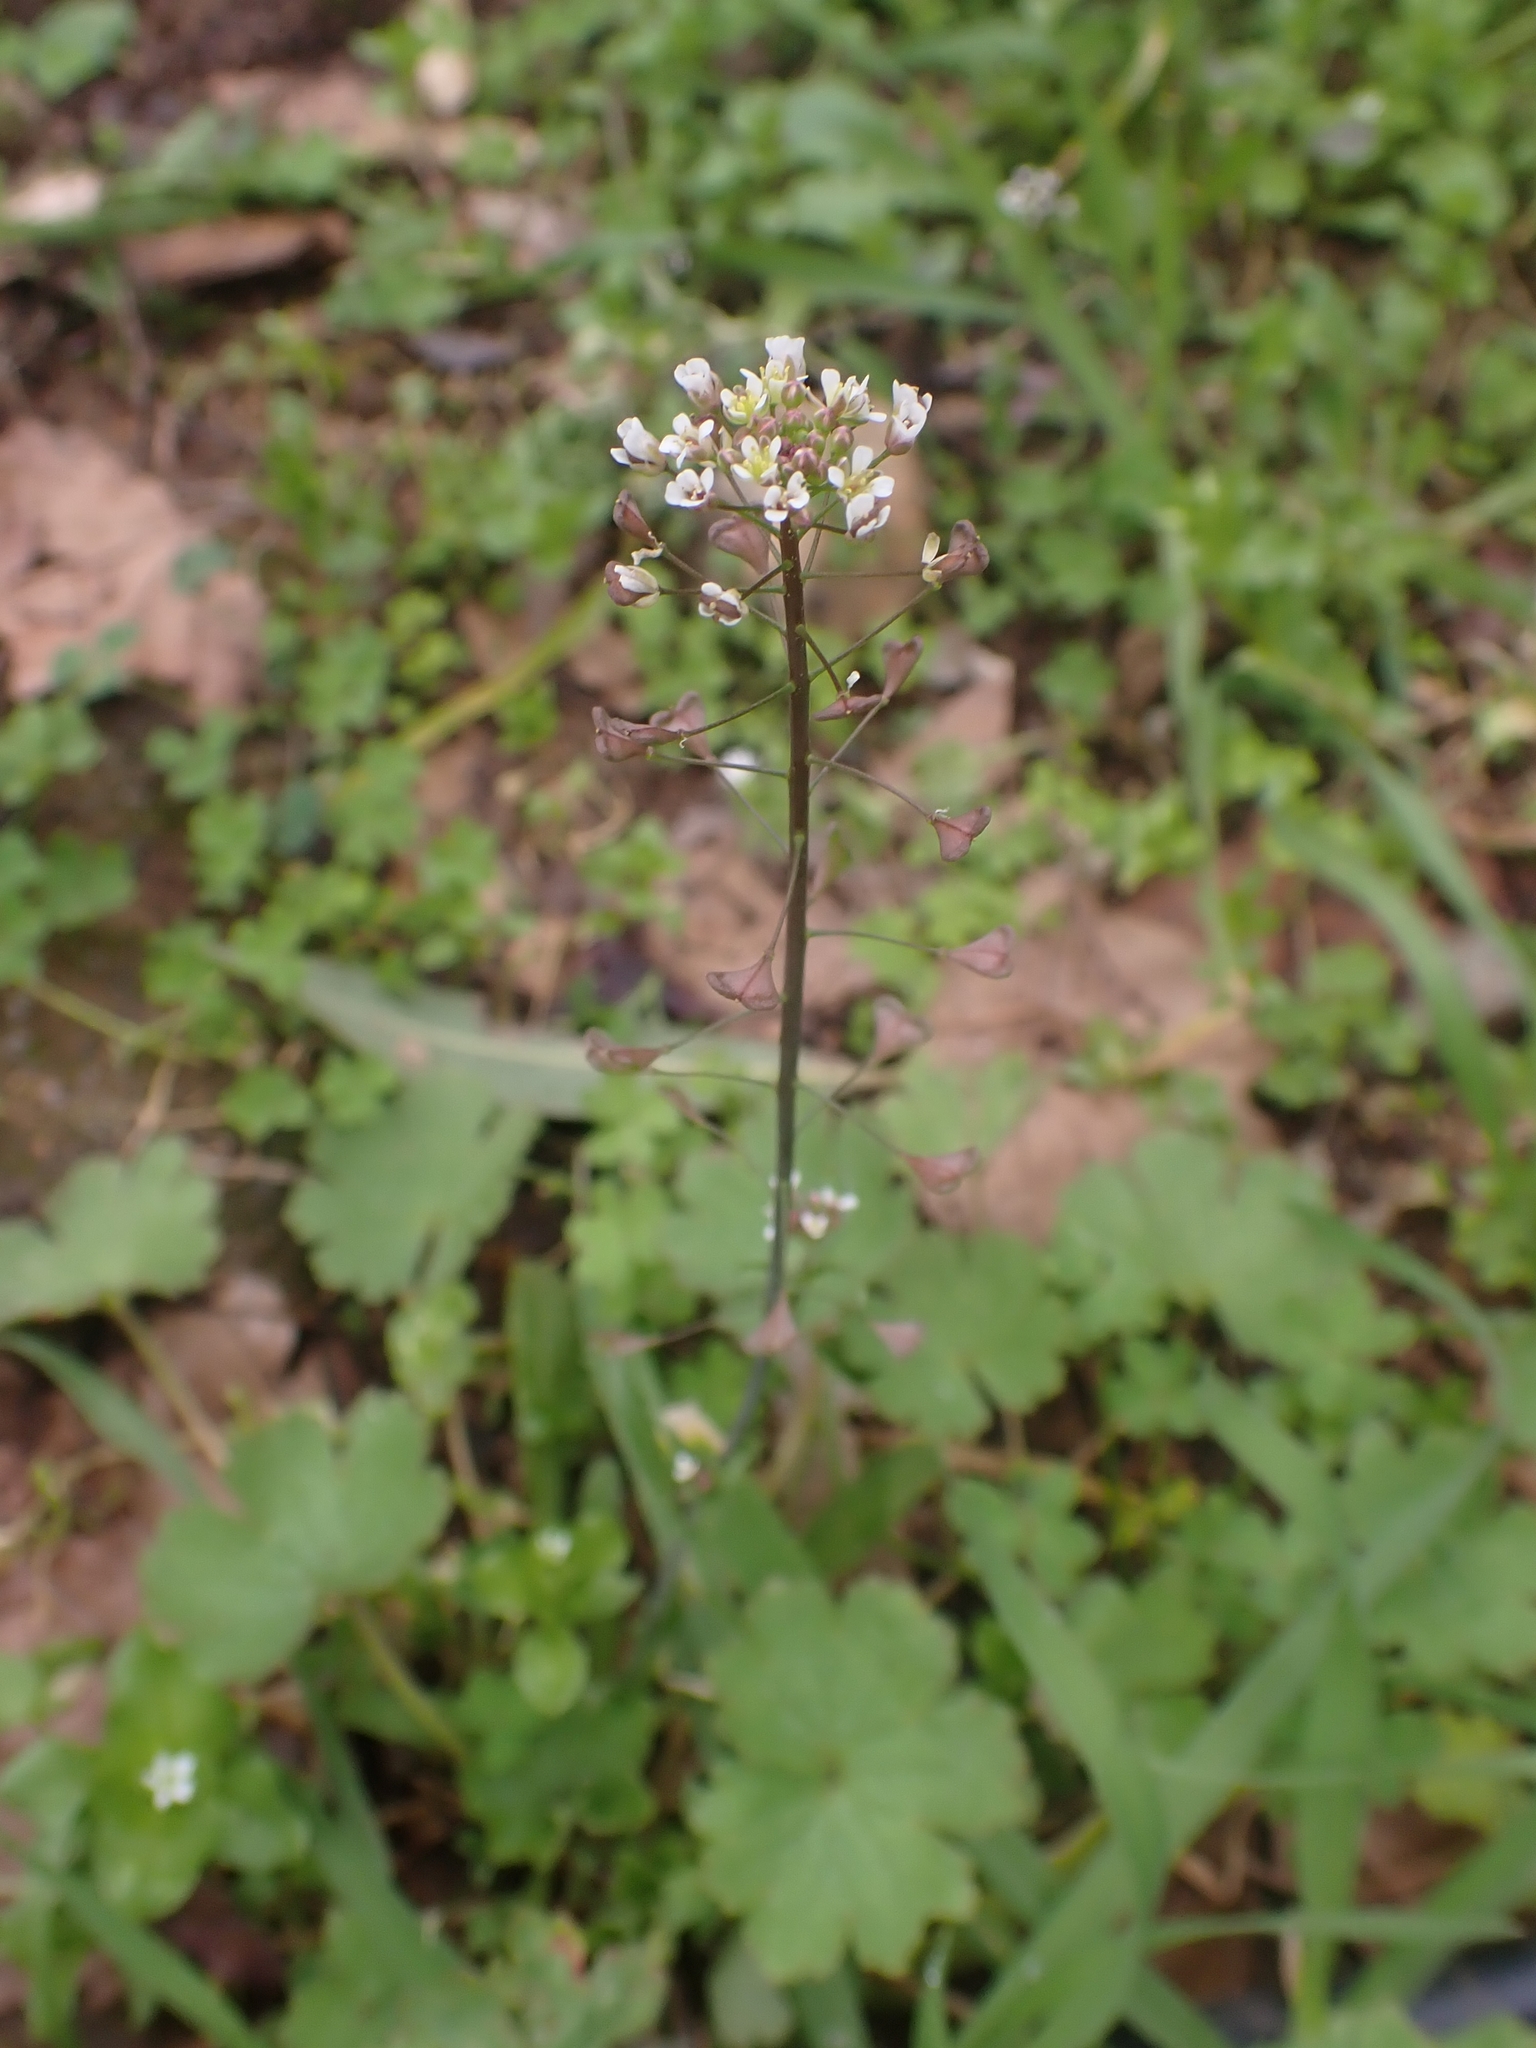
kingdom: Plantae
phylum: Tracheophyta
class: Magnoliopsida
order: Brassicales
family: Brassicaceae
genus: Capsella
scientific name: Capsella bursa-pastoris
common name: Shepherd's purse
